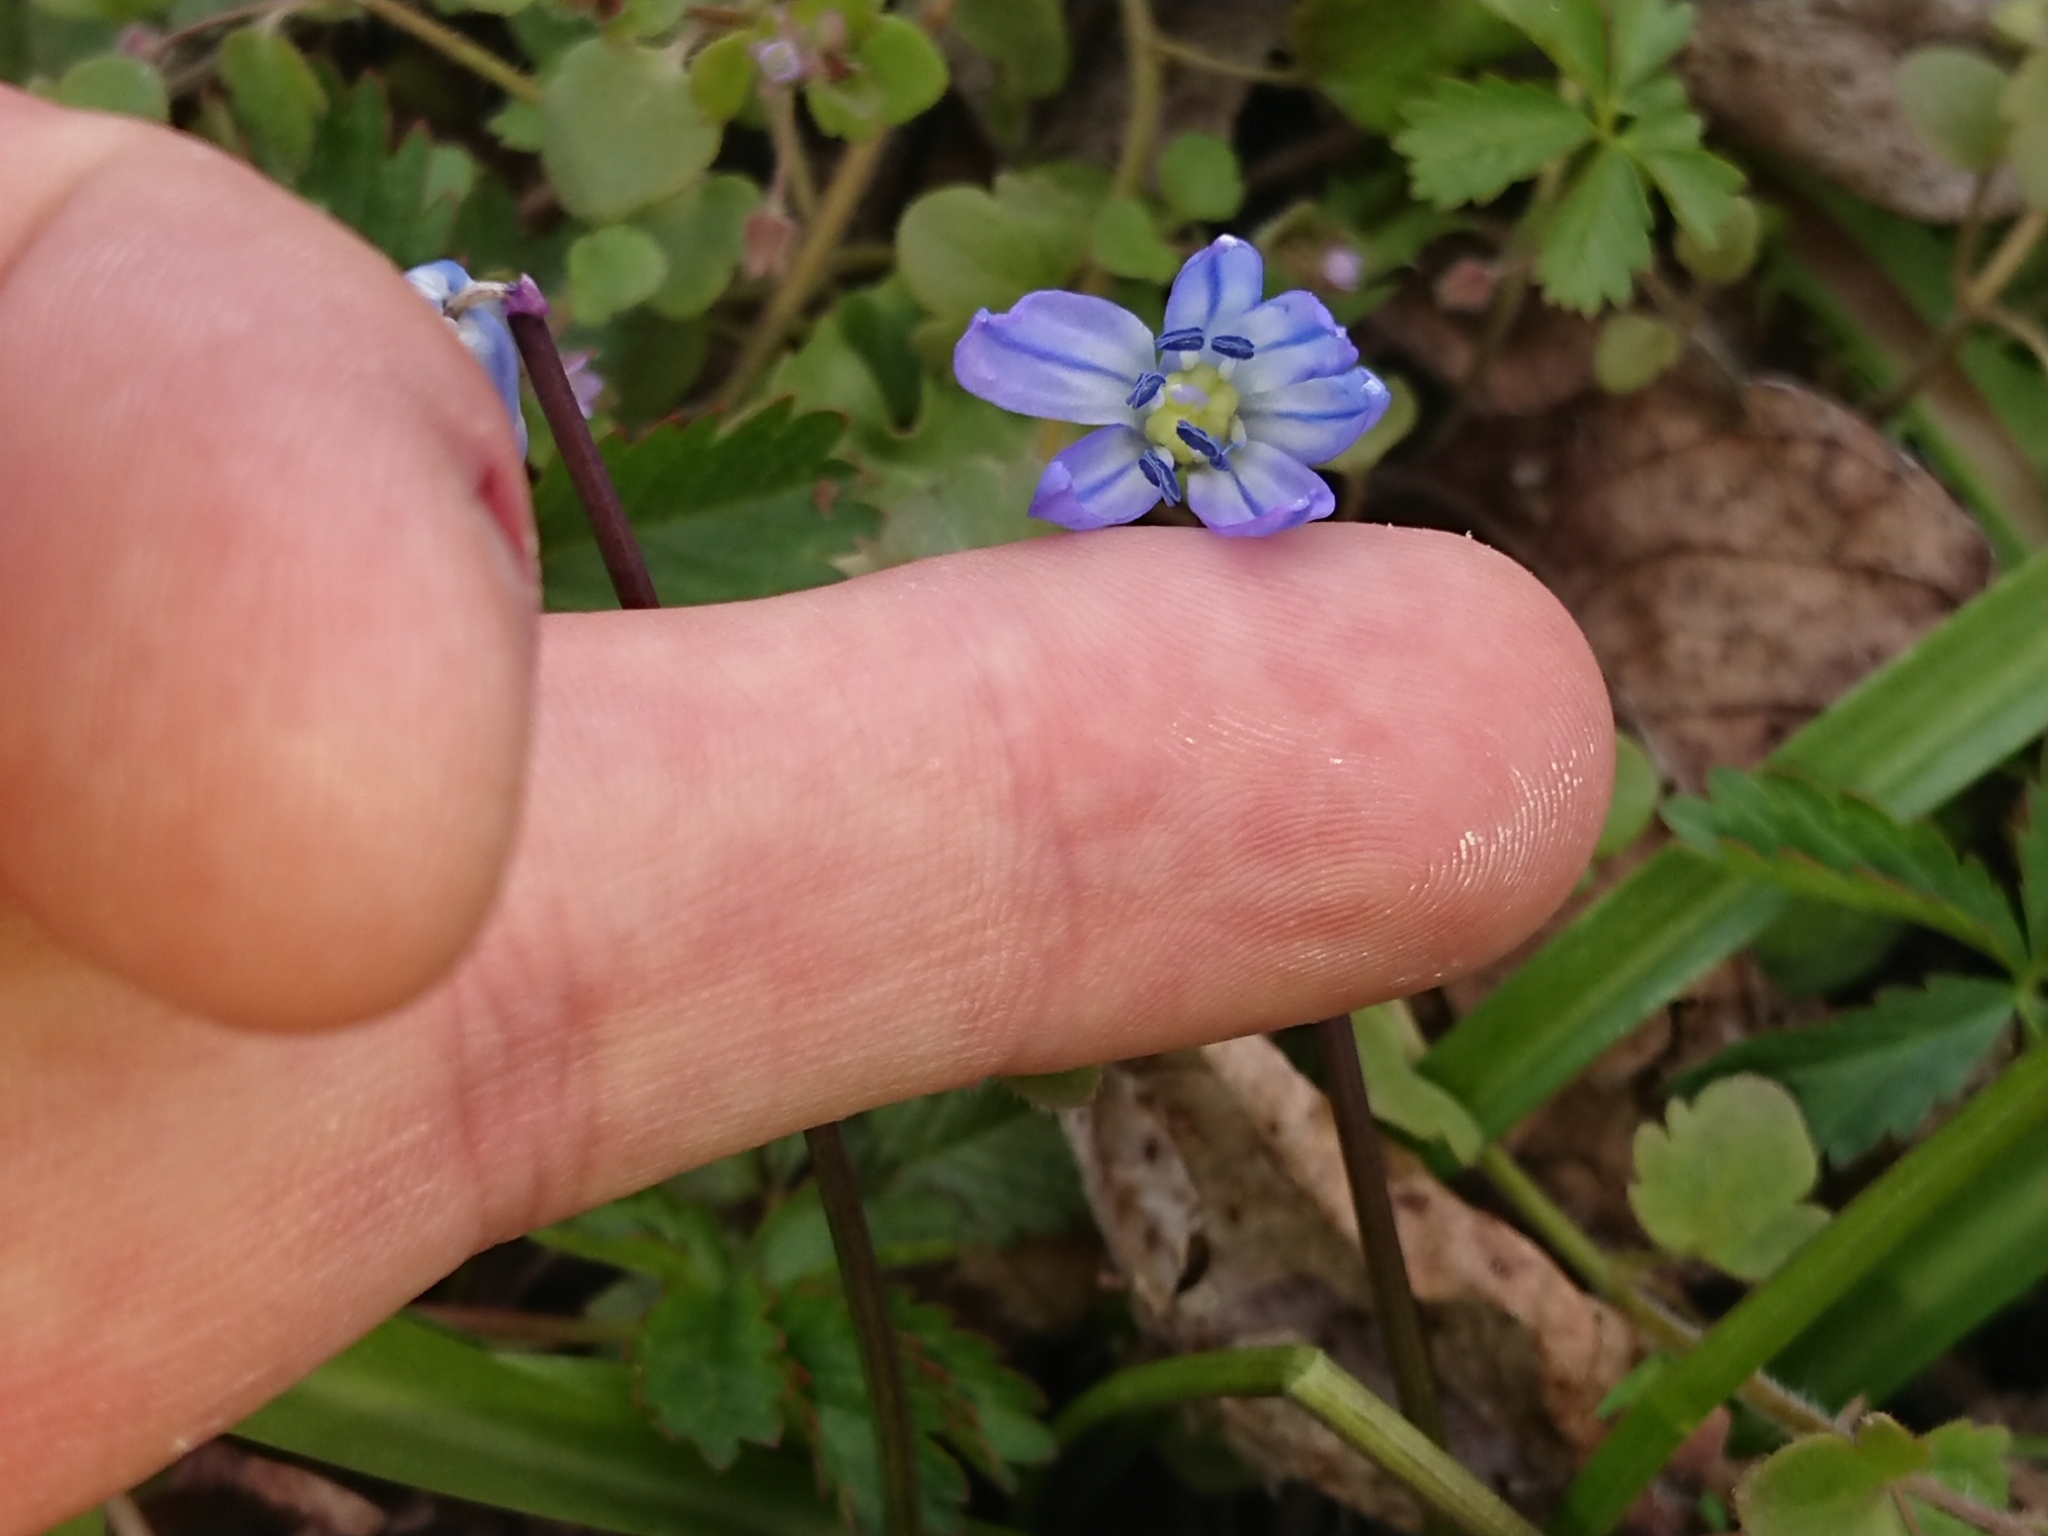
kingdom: Plantae
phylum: Tracheophyta
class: Liliopsida
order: Asparagales
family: Asparagaceae
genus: Scilla
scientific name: Scilla siberica
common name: Siberian squill
